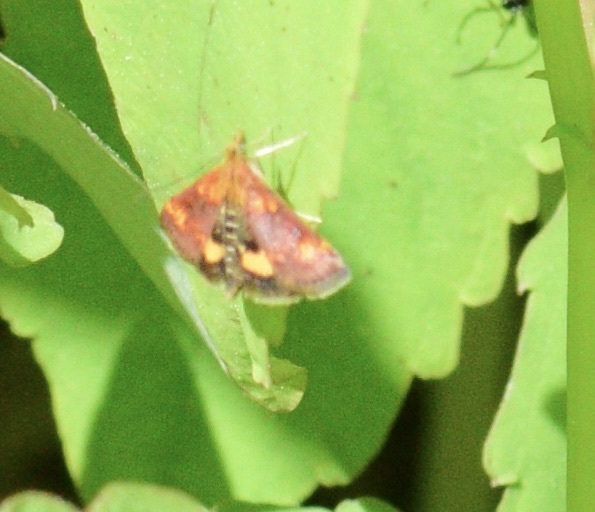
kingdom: Animalia
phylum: Arthropoda
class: Insecta
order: Lepidoptera
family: Crambidae
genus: Pyrausta
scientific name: Pyrausta orphisalis
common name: Orange mint moth
